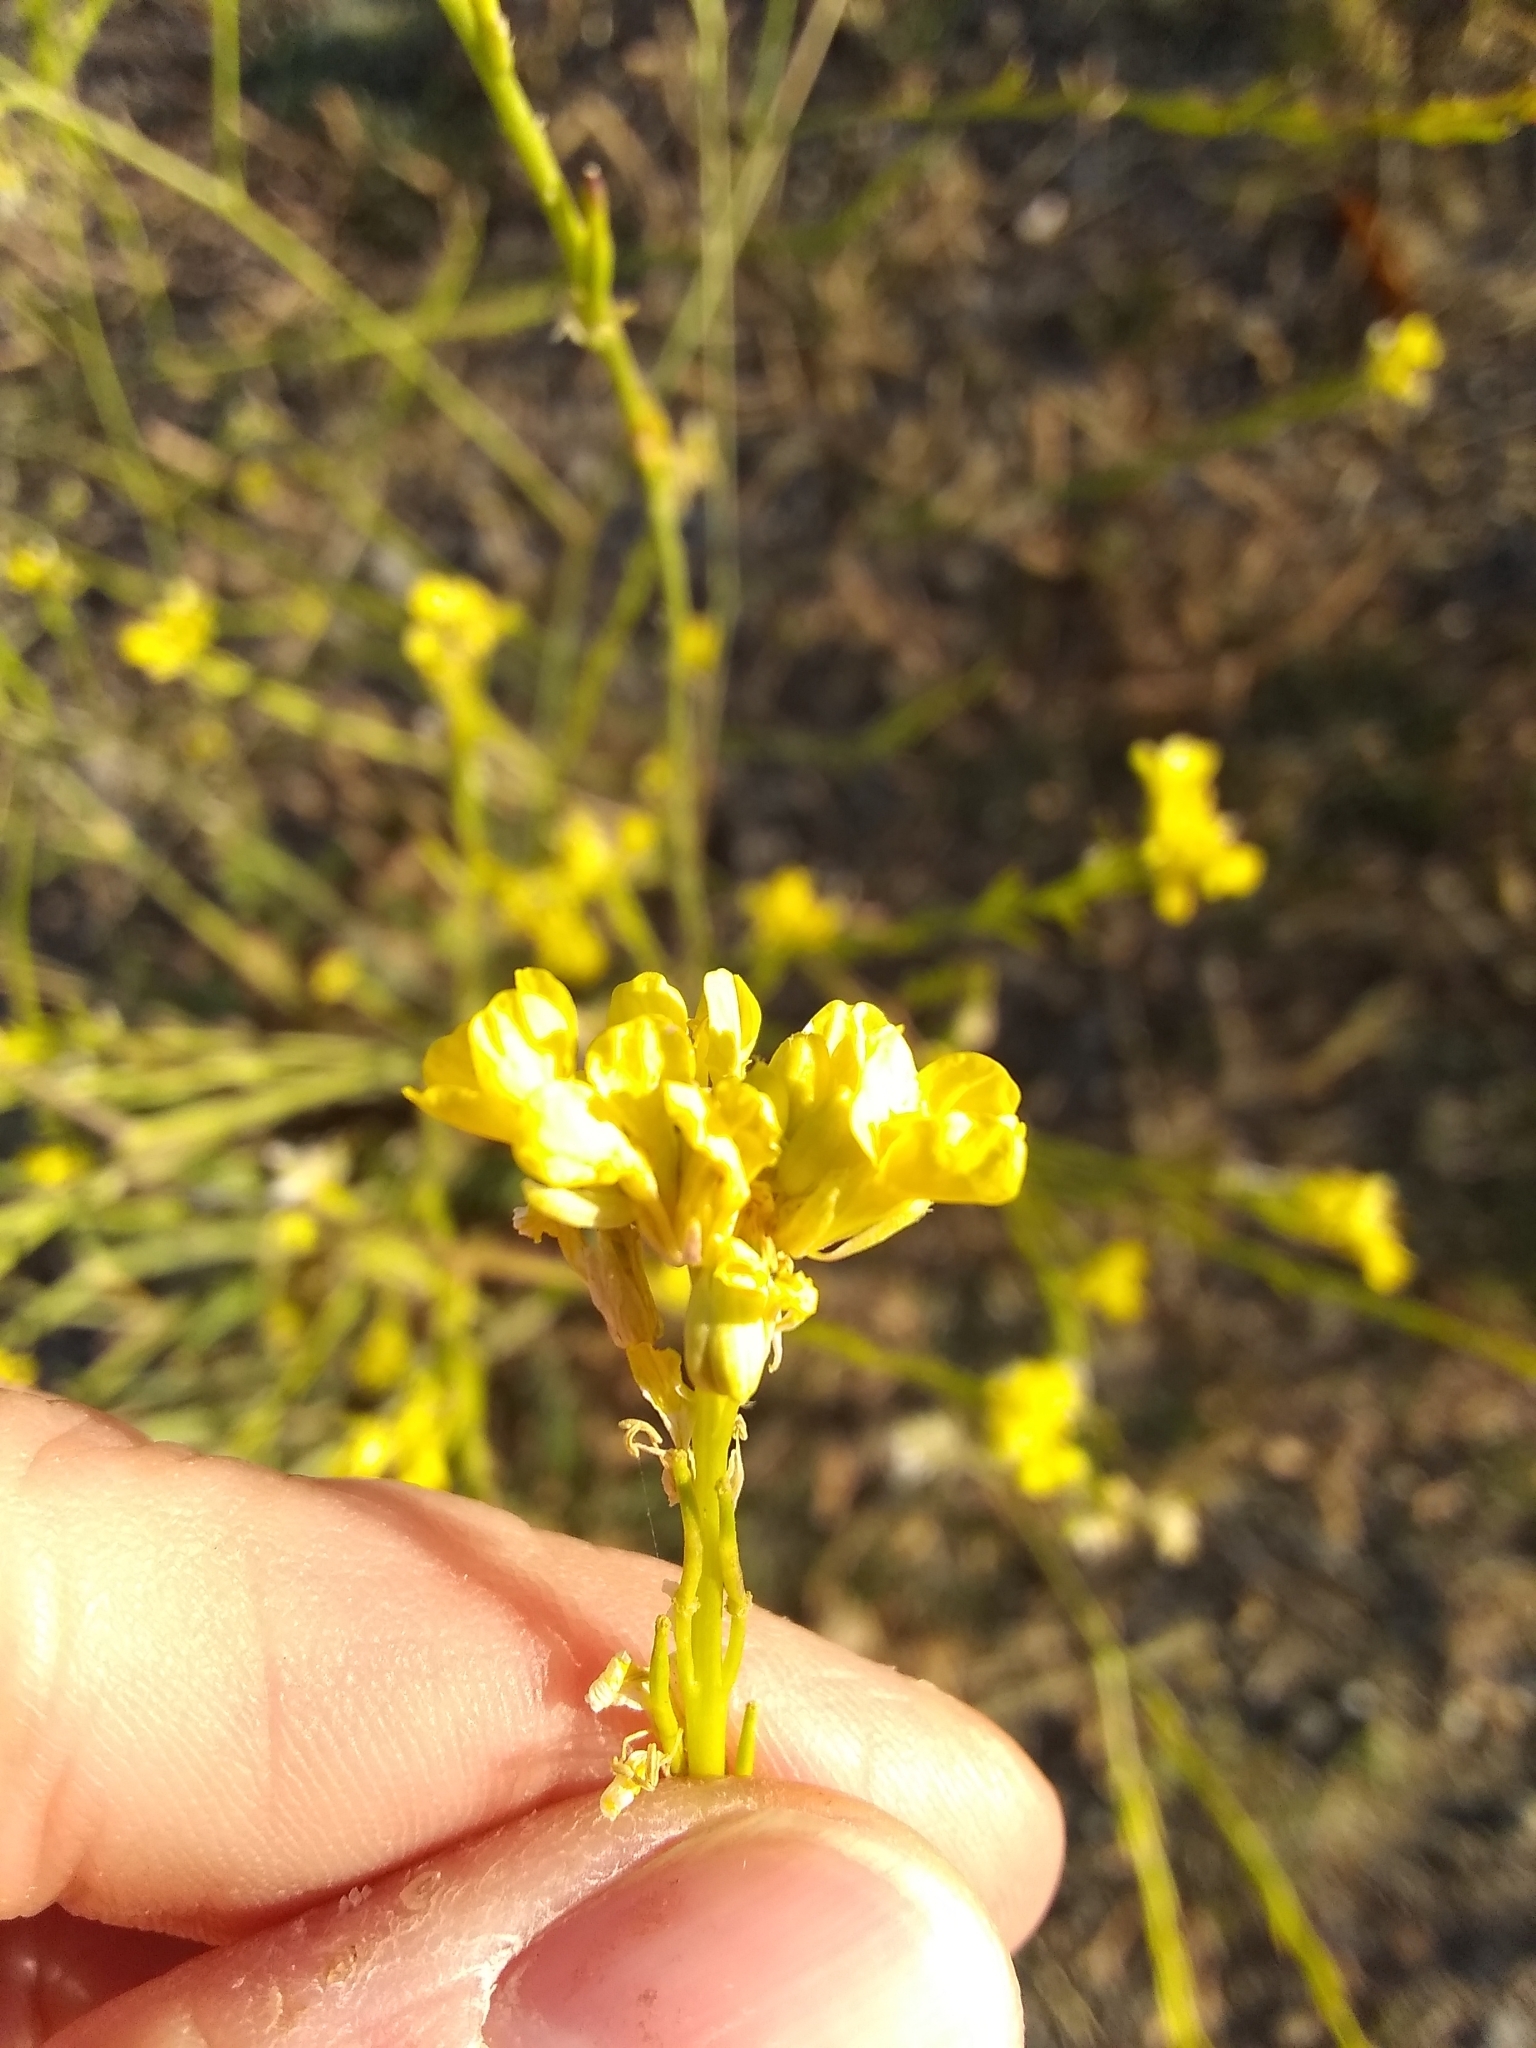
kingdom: Plantae
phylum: Tracheophyta
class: Magnoliopsida
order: Brassicales
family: Brassicaceae
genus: Hirschfeldia
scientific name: Hirschfeldia incana
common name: Hoary mustard
